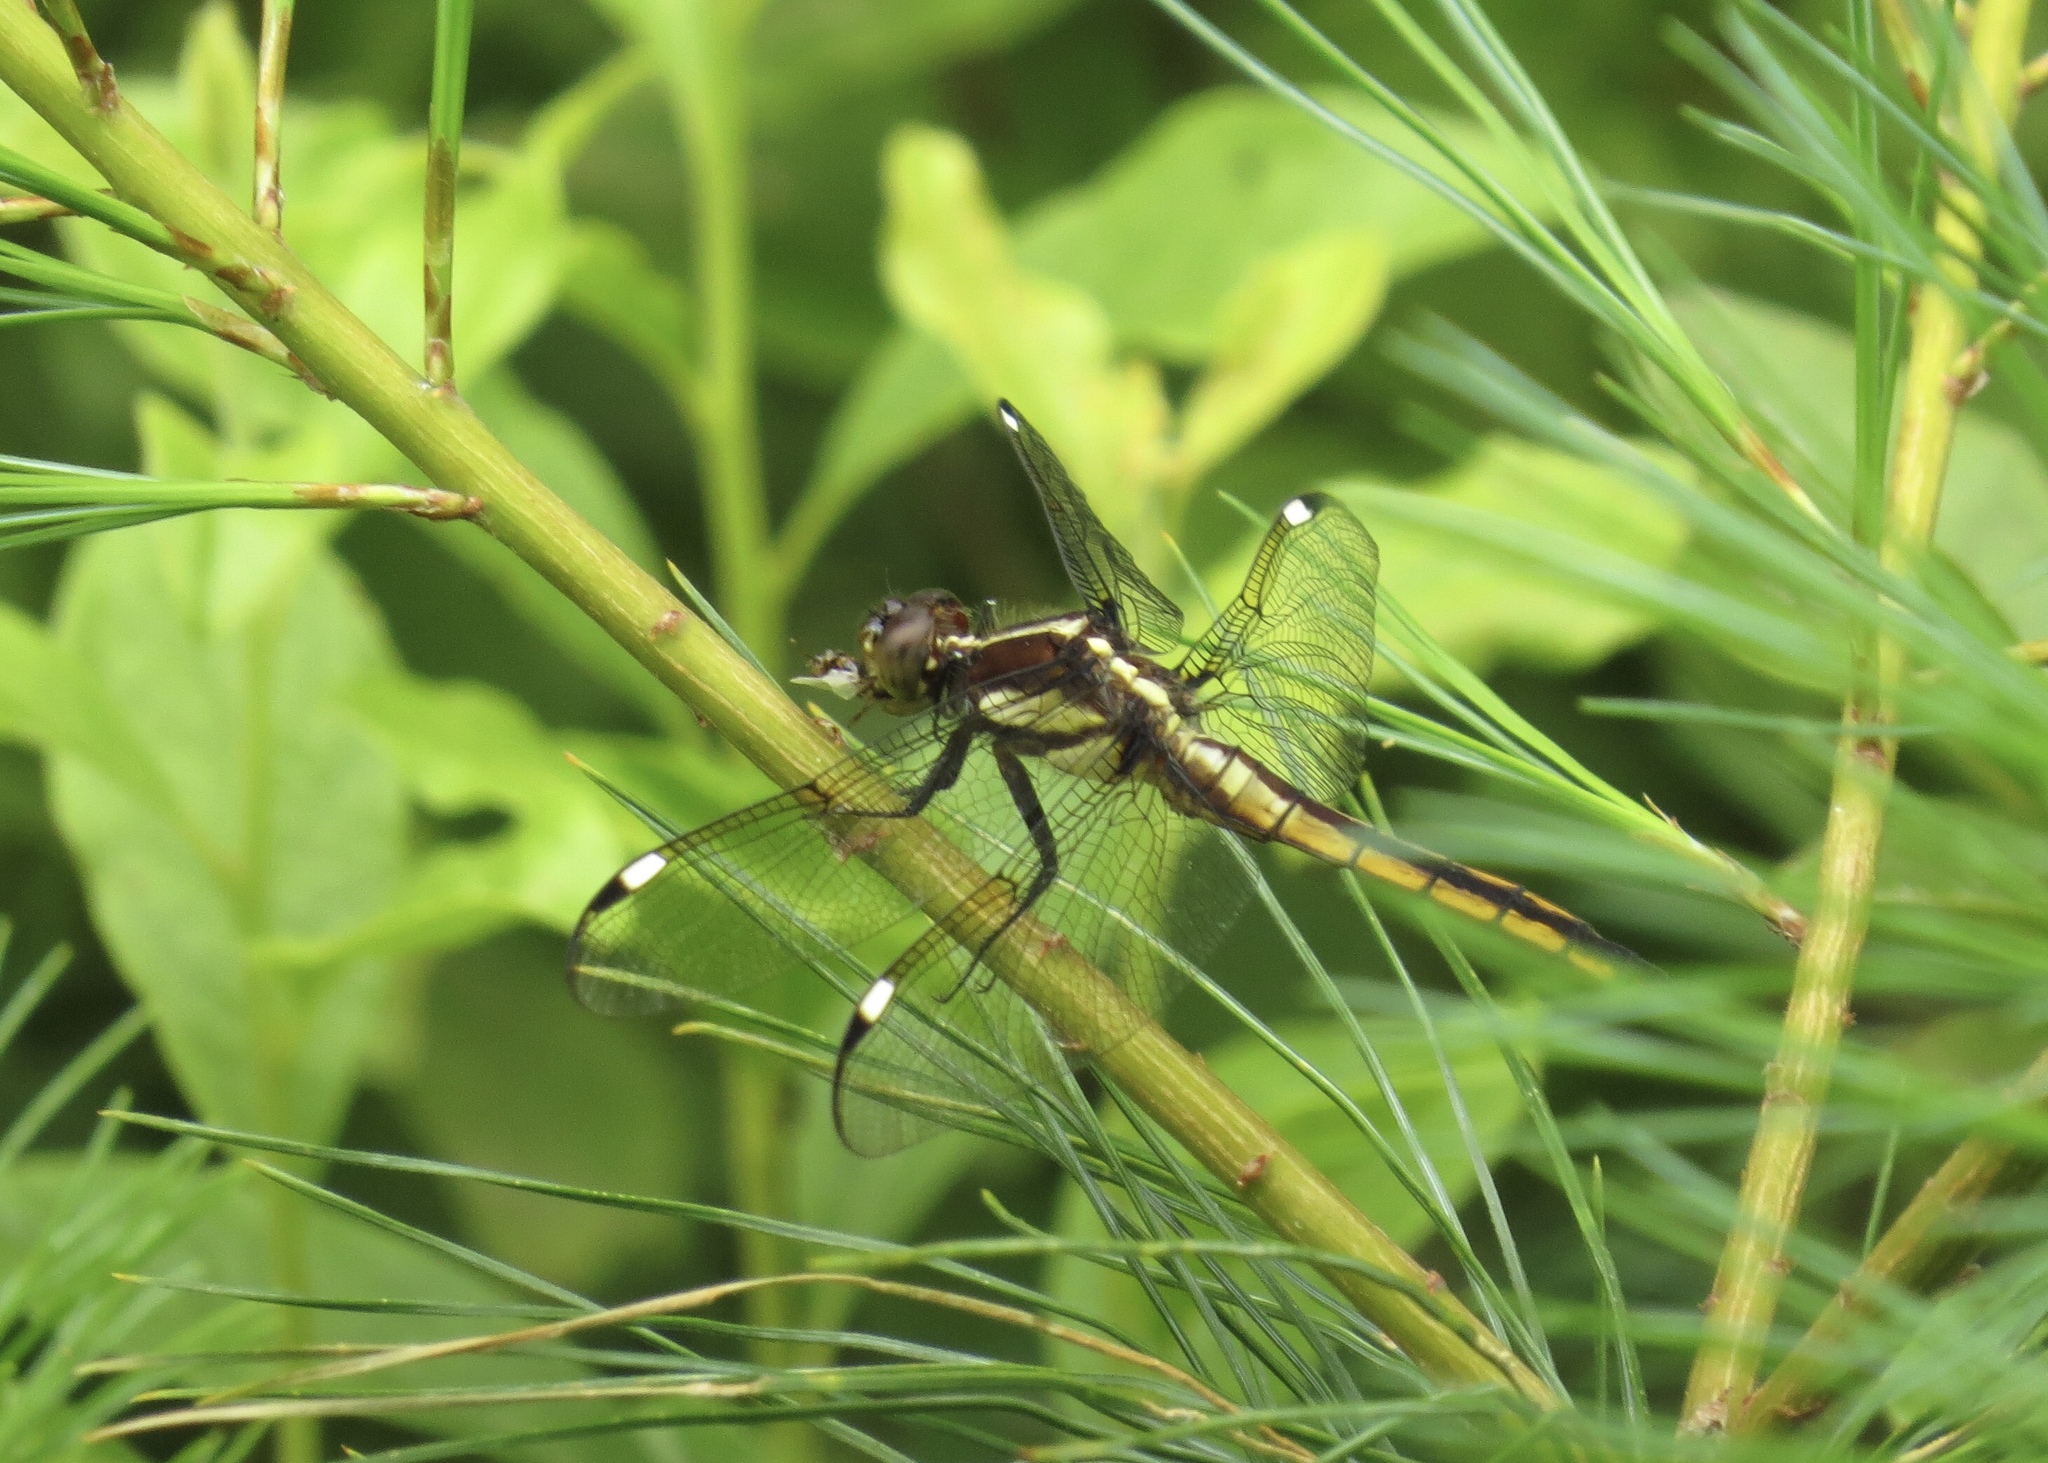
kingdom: Animalia
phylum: Arthropoda
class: Insecta
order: Odonata
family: Libellulidae
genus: Libellula
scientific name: Libellula cyanea
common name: Spangled skimmer
